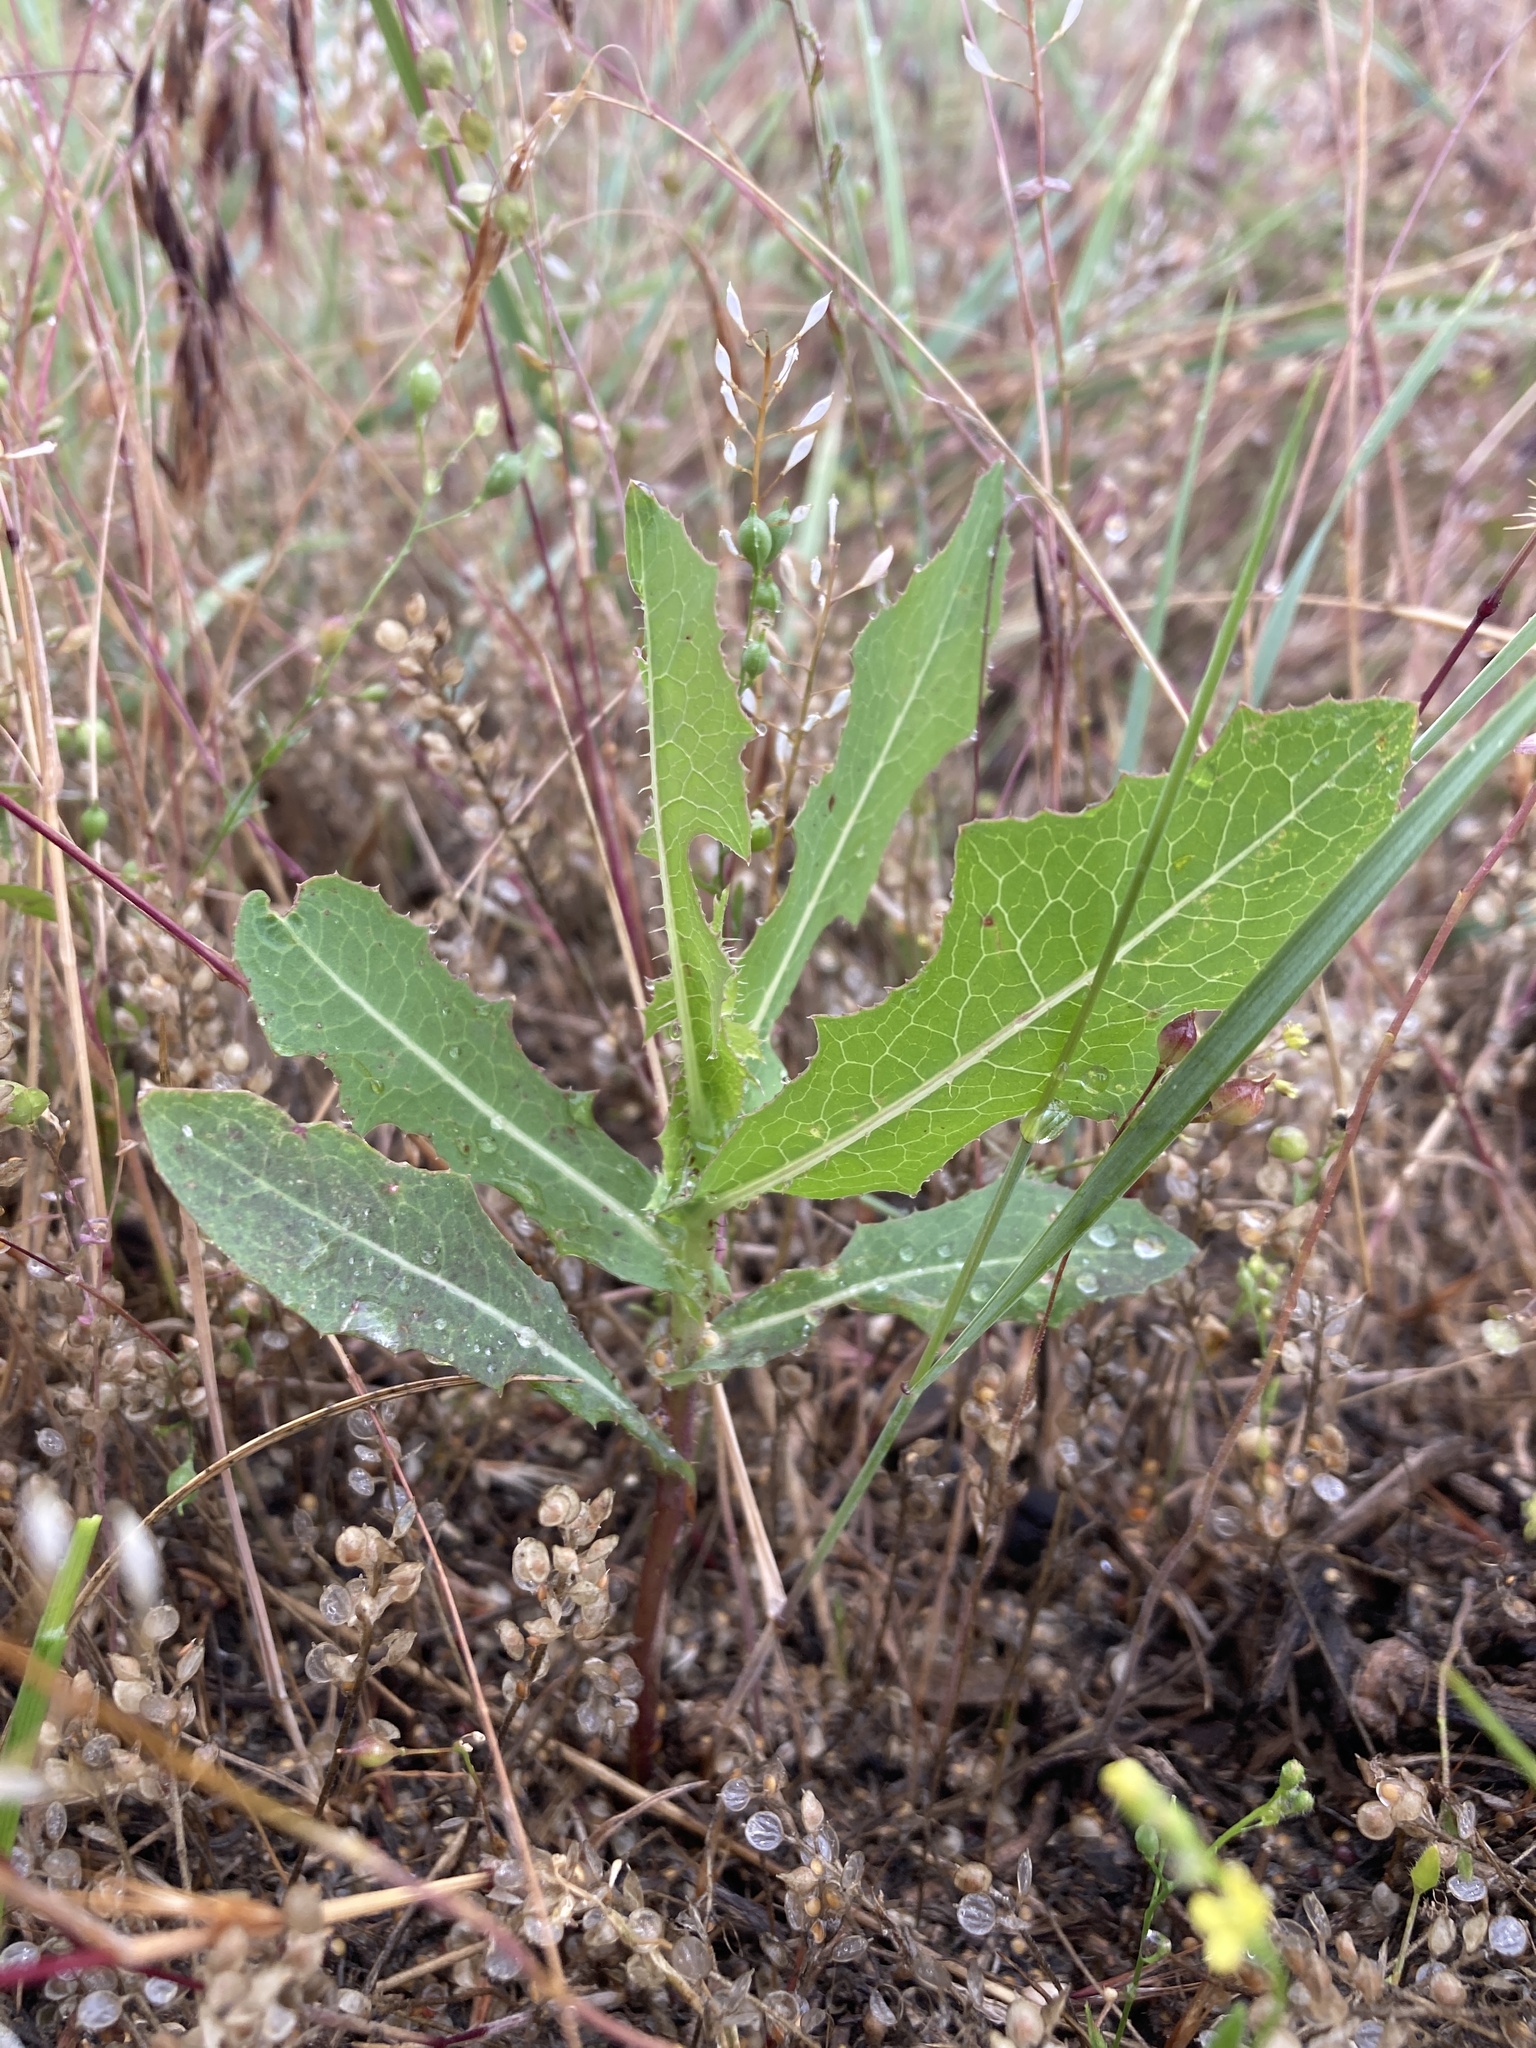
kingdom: Plantae
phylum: Tracheophyta
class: Magnoliopsida
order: Asterales
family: Asteraceae
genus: Lactuca
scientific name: Lactuca serriola
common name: Prickly lettuce
